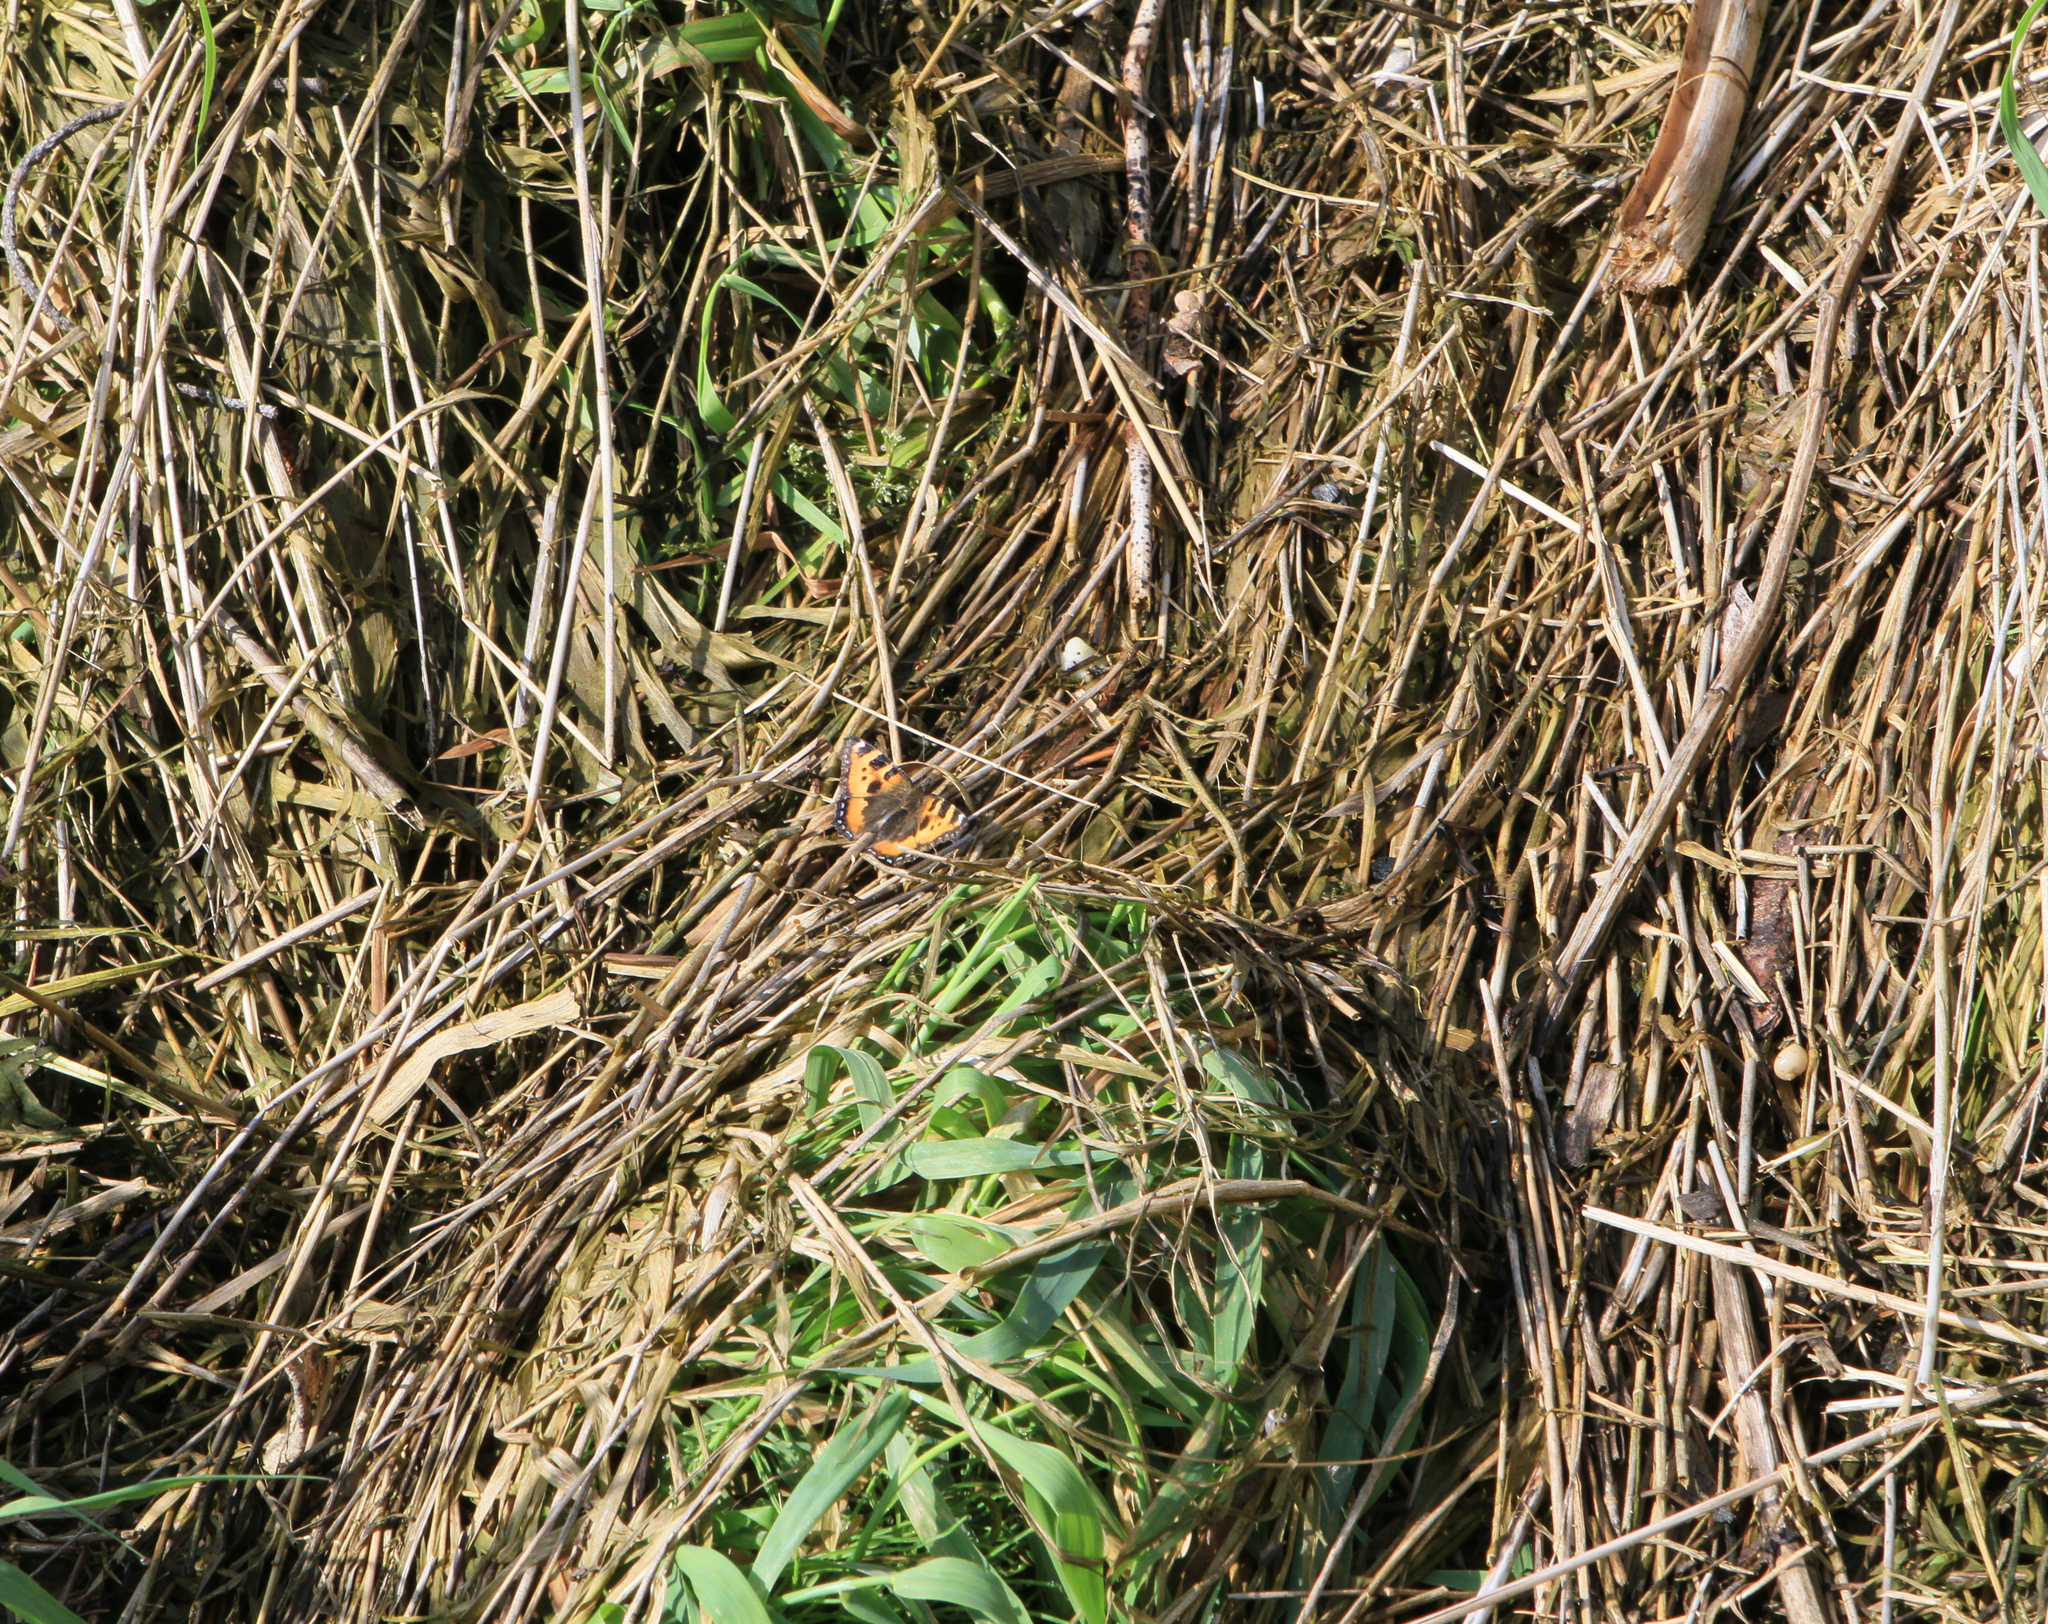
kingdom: Animalia
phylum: Arthropoda
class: Insecta
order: Lepidoptera
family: Nymphalidae
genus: Aglais
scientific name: Aglais urticae
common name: Small tortoiseshell
